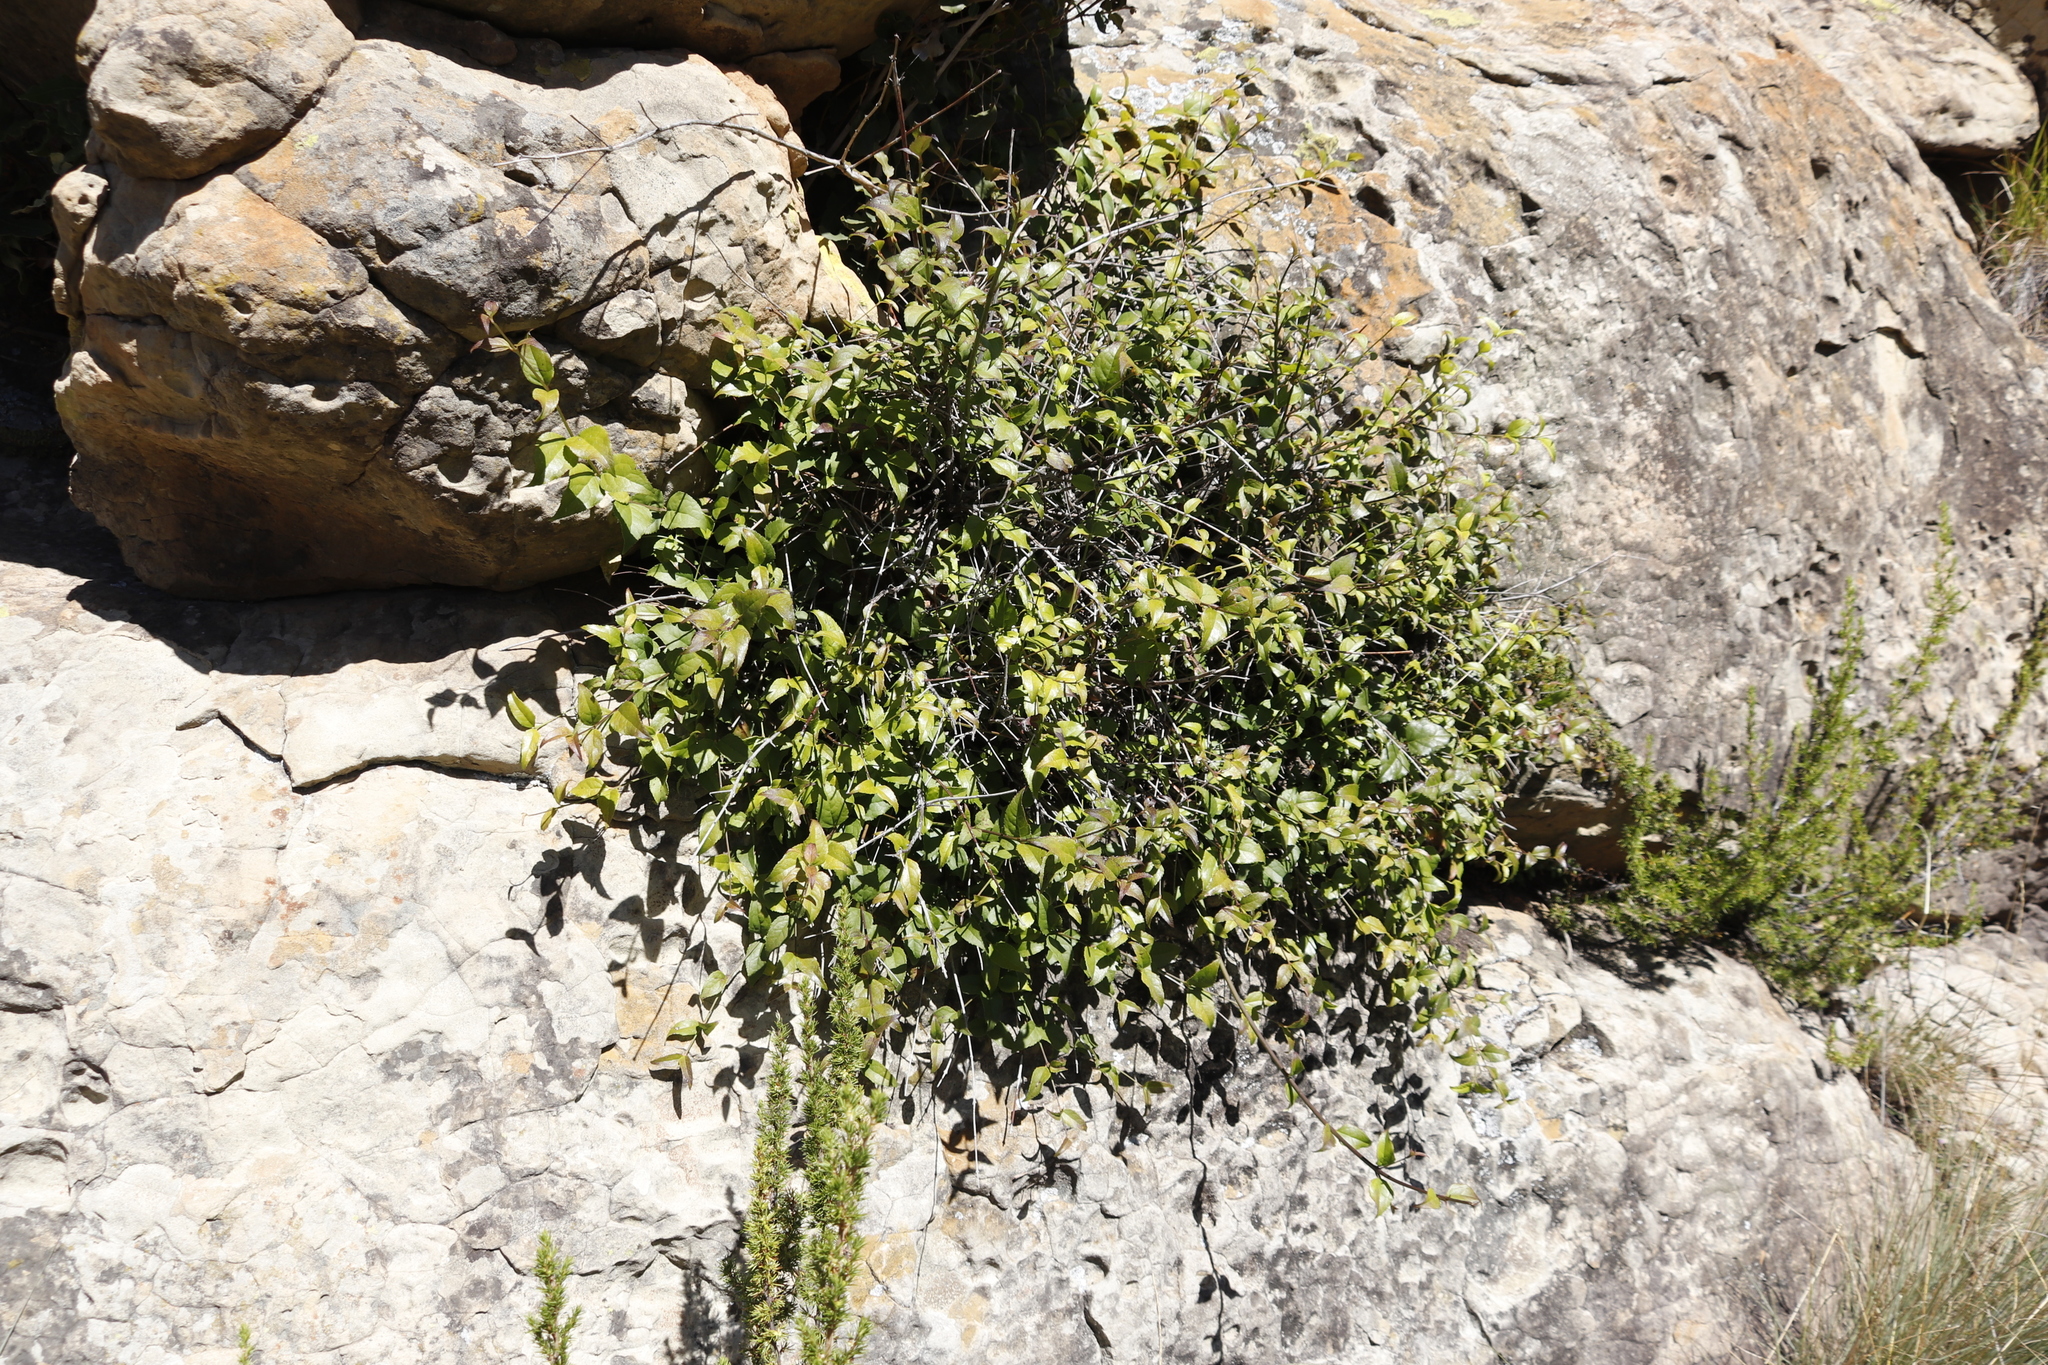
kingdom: Plantae
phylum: Tracheophyta
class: Magnoliopsida
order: Lamiales
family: Stilbaceae
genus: Halleria
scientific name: Halleria lucida
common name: Tree fuschia
